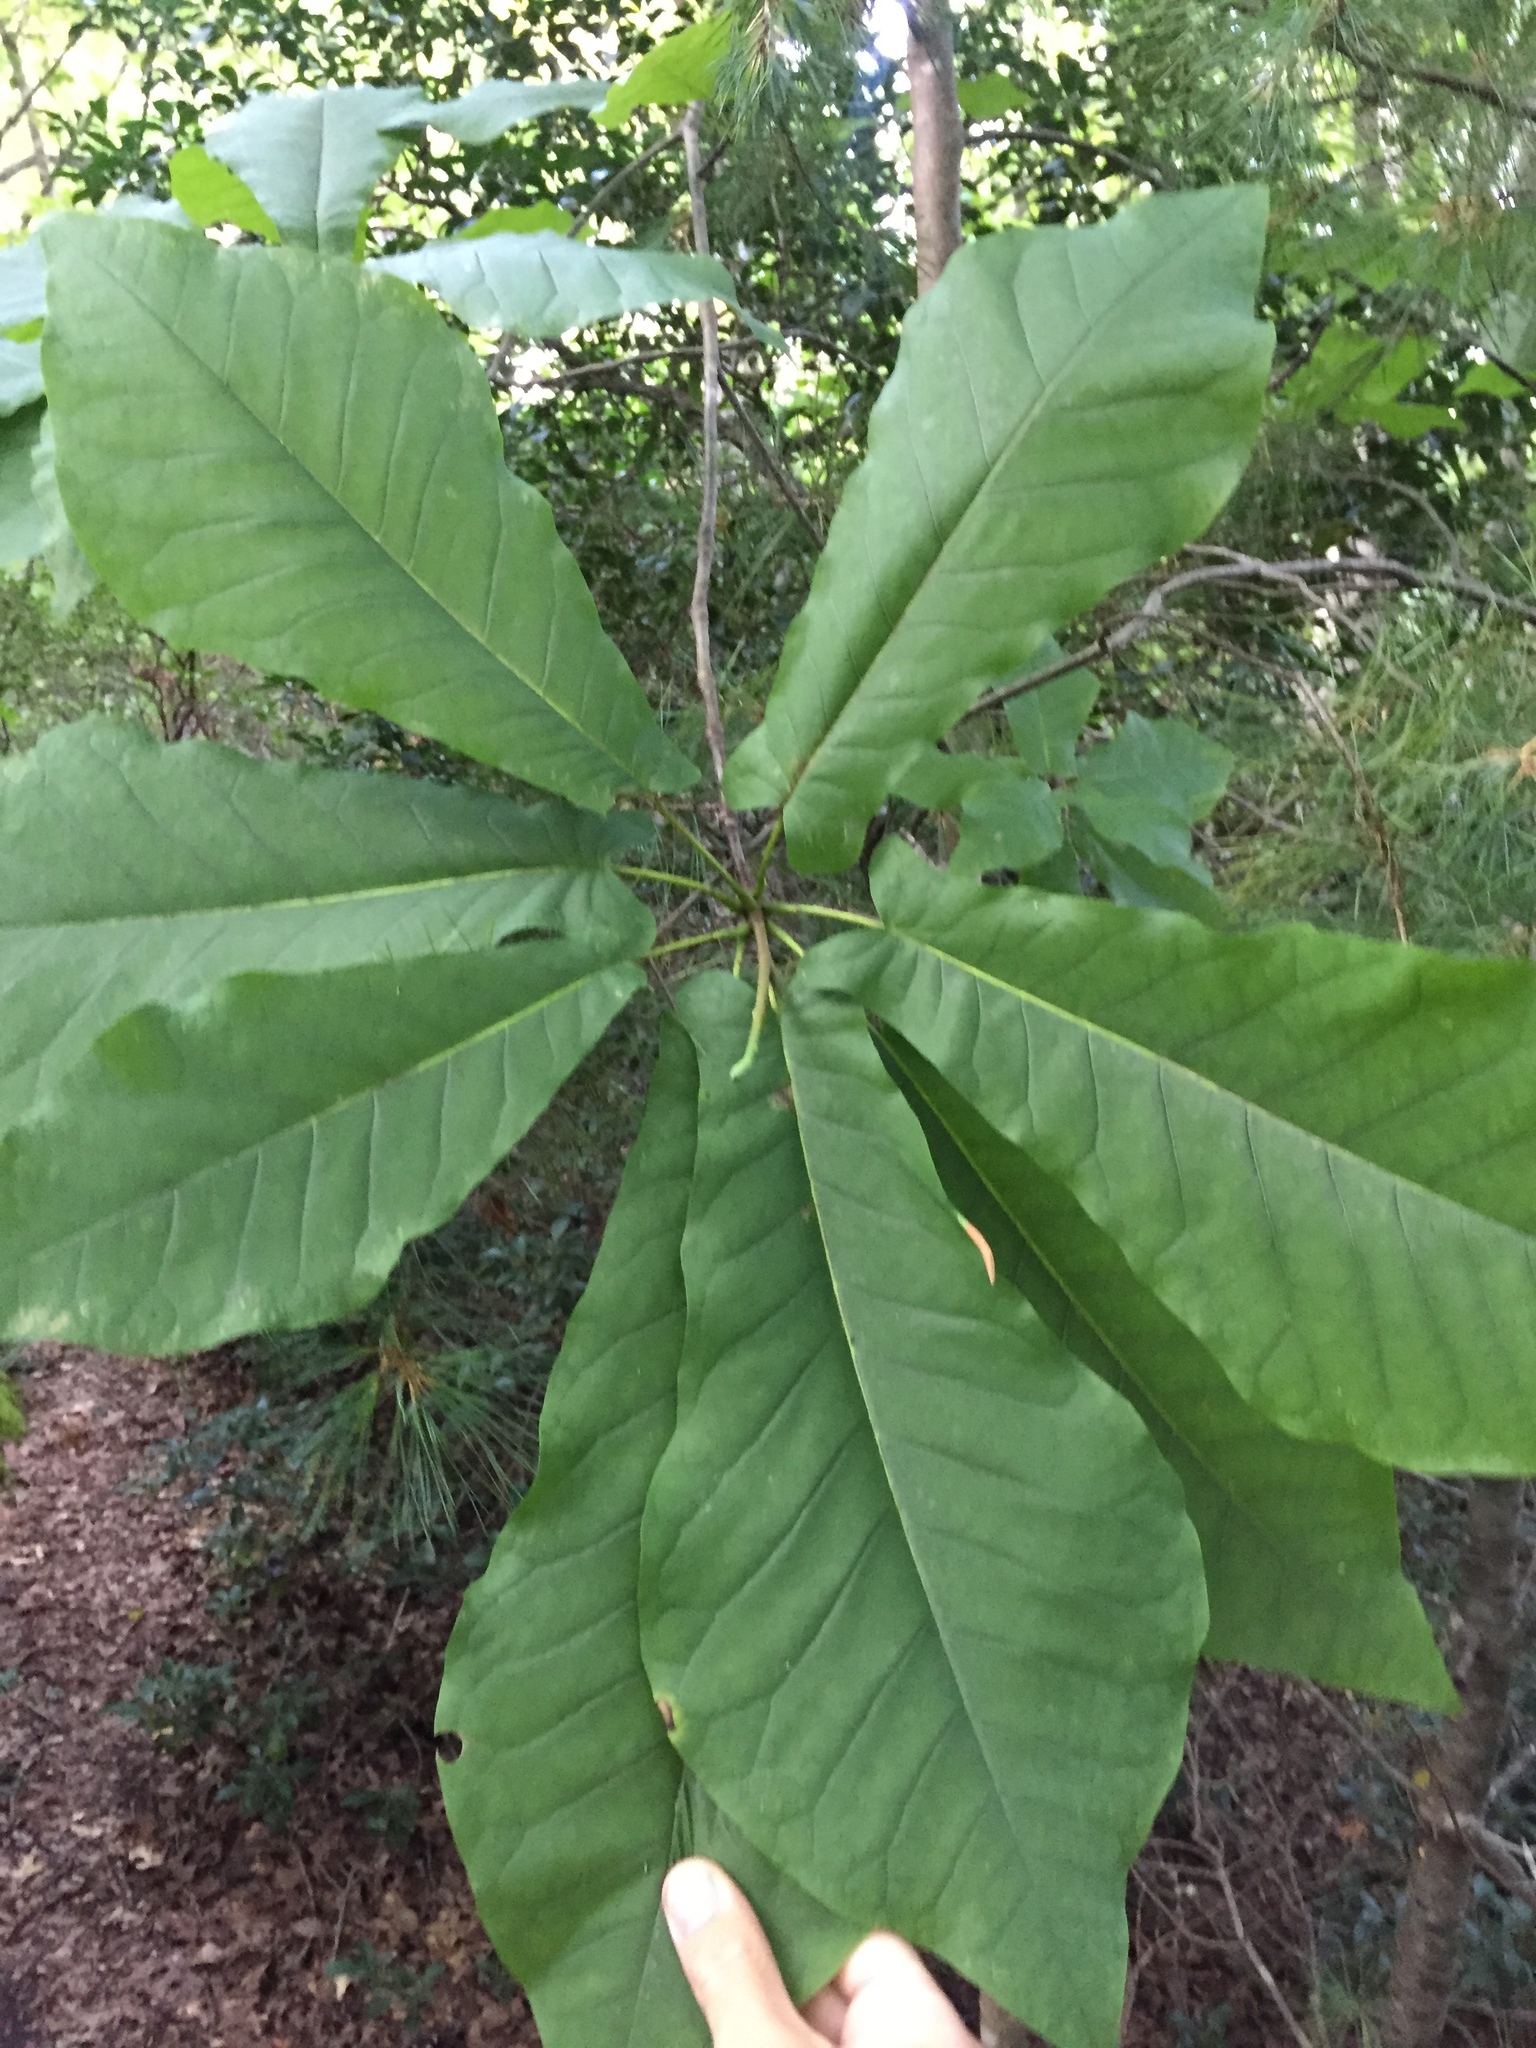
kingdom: Plantae
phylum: Tracheophyta
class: Magnoliopsida
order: Magnoliales
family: Magnoliaceae
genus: Magnolia
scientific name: Magnolia fraseri
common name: Fraser's magnolia
